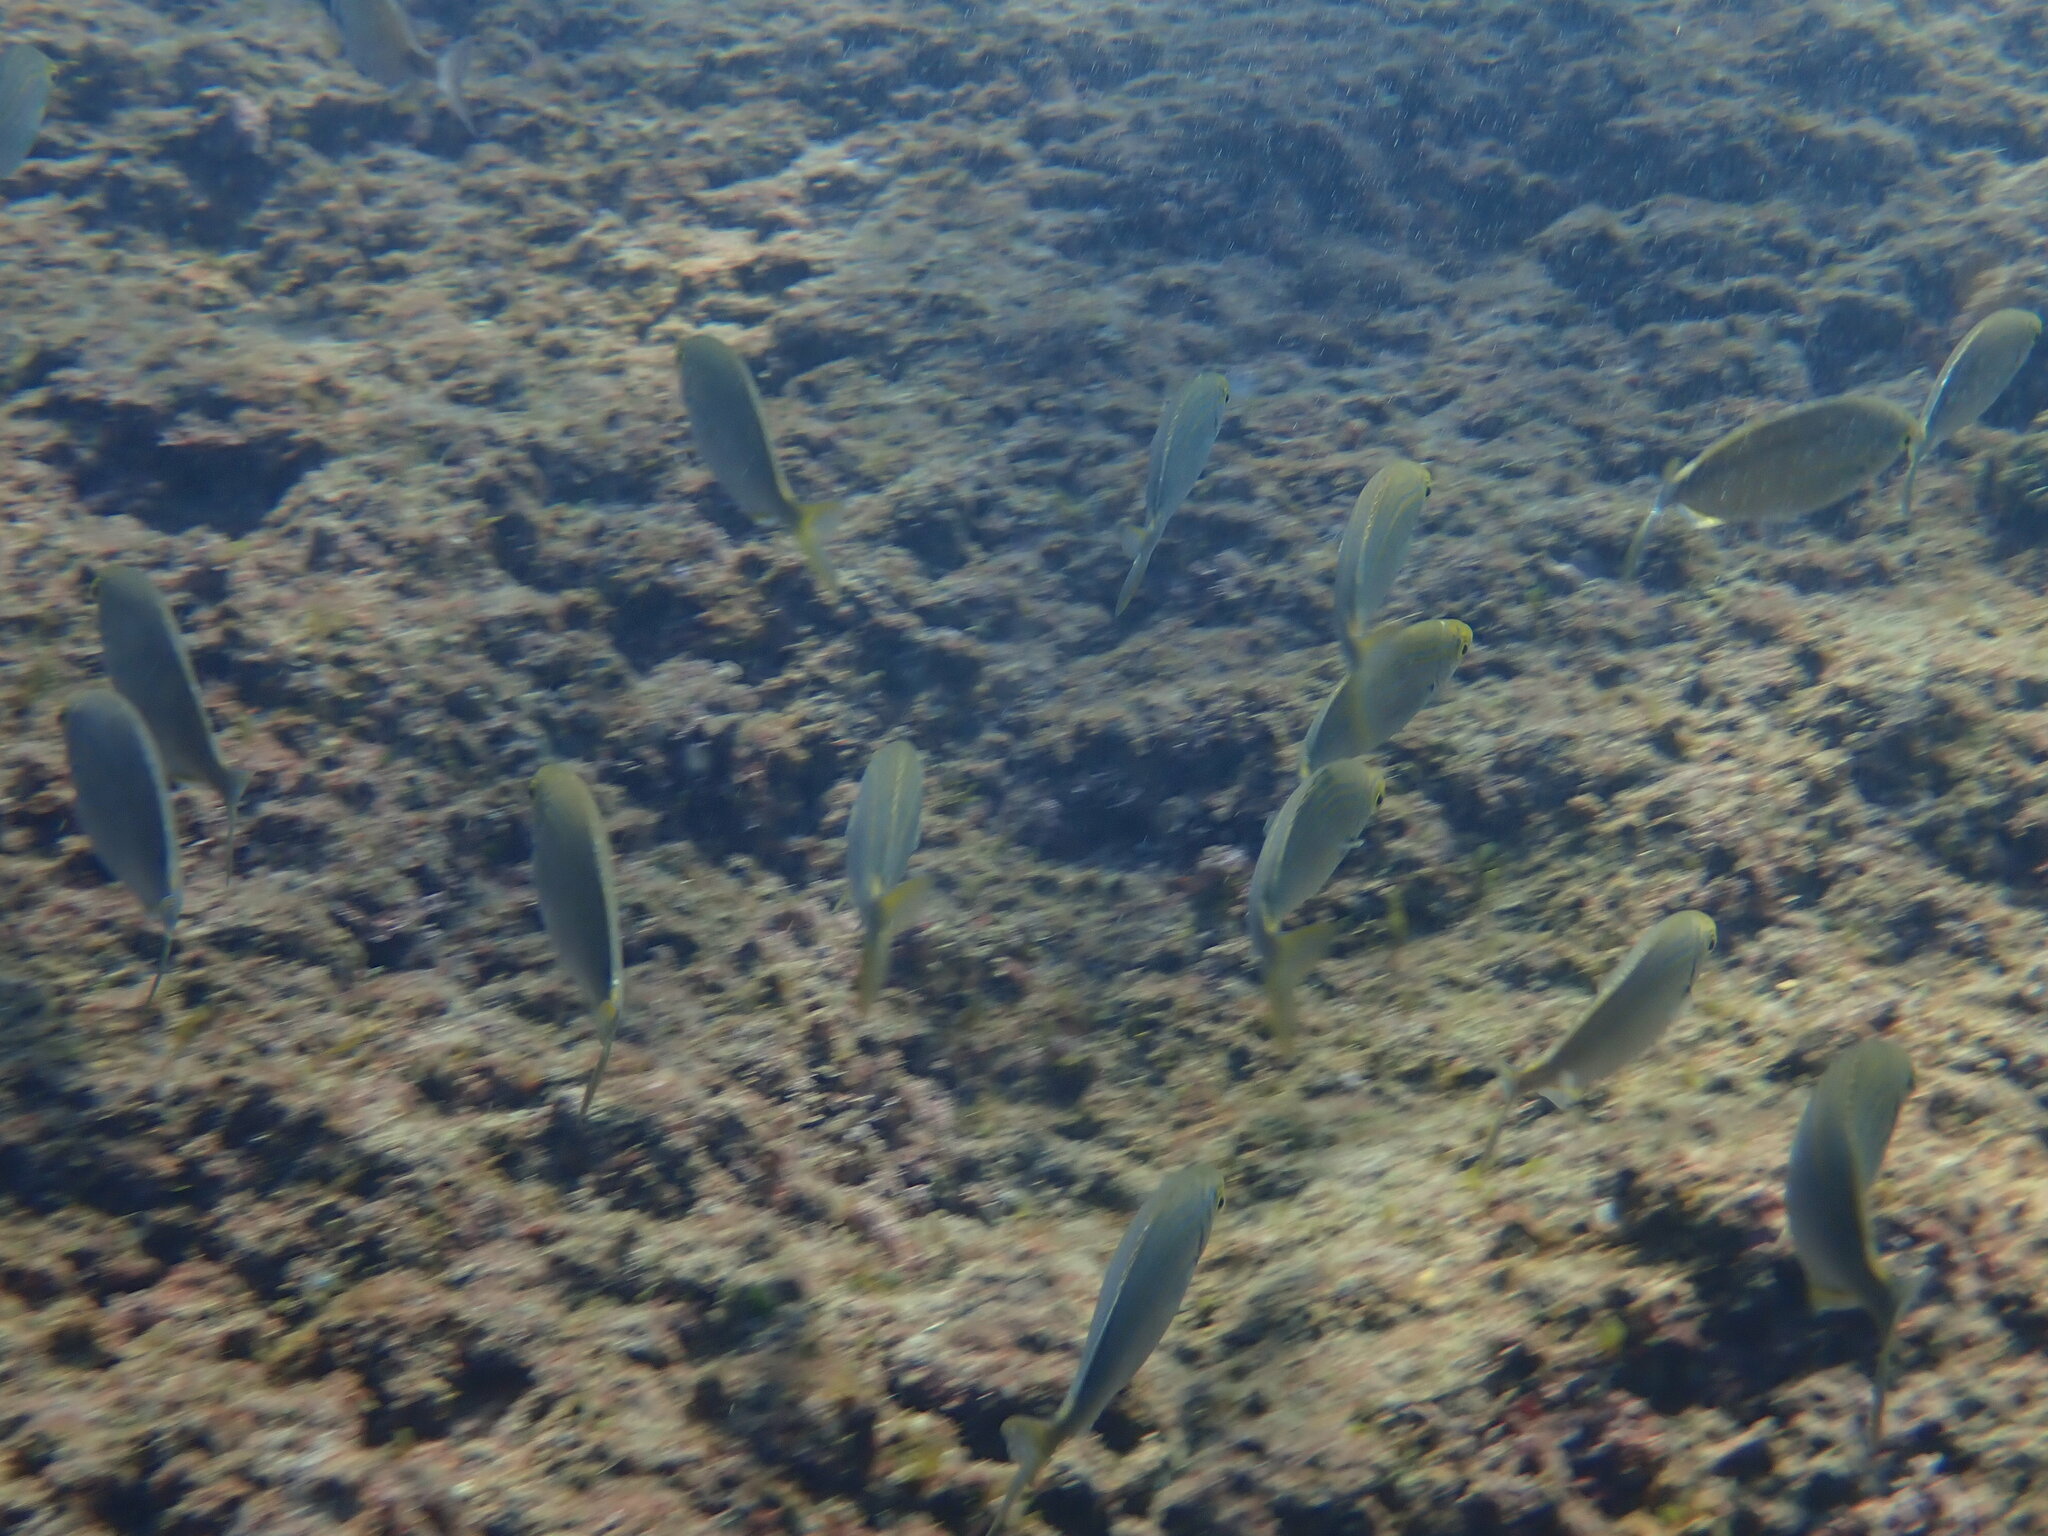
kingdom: Animalia
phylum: Chordata
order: Perciformes
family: Sparidae
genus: Sarpa
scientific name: Sarpa salpa
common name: Salema
